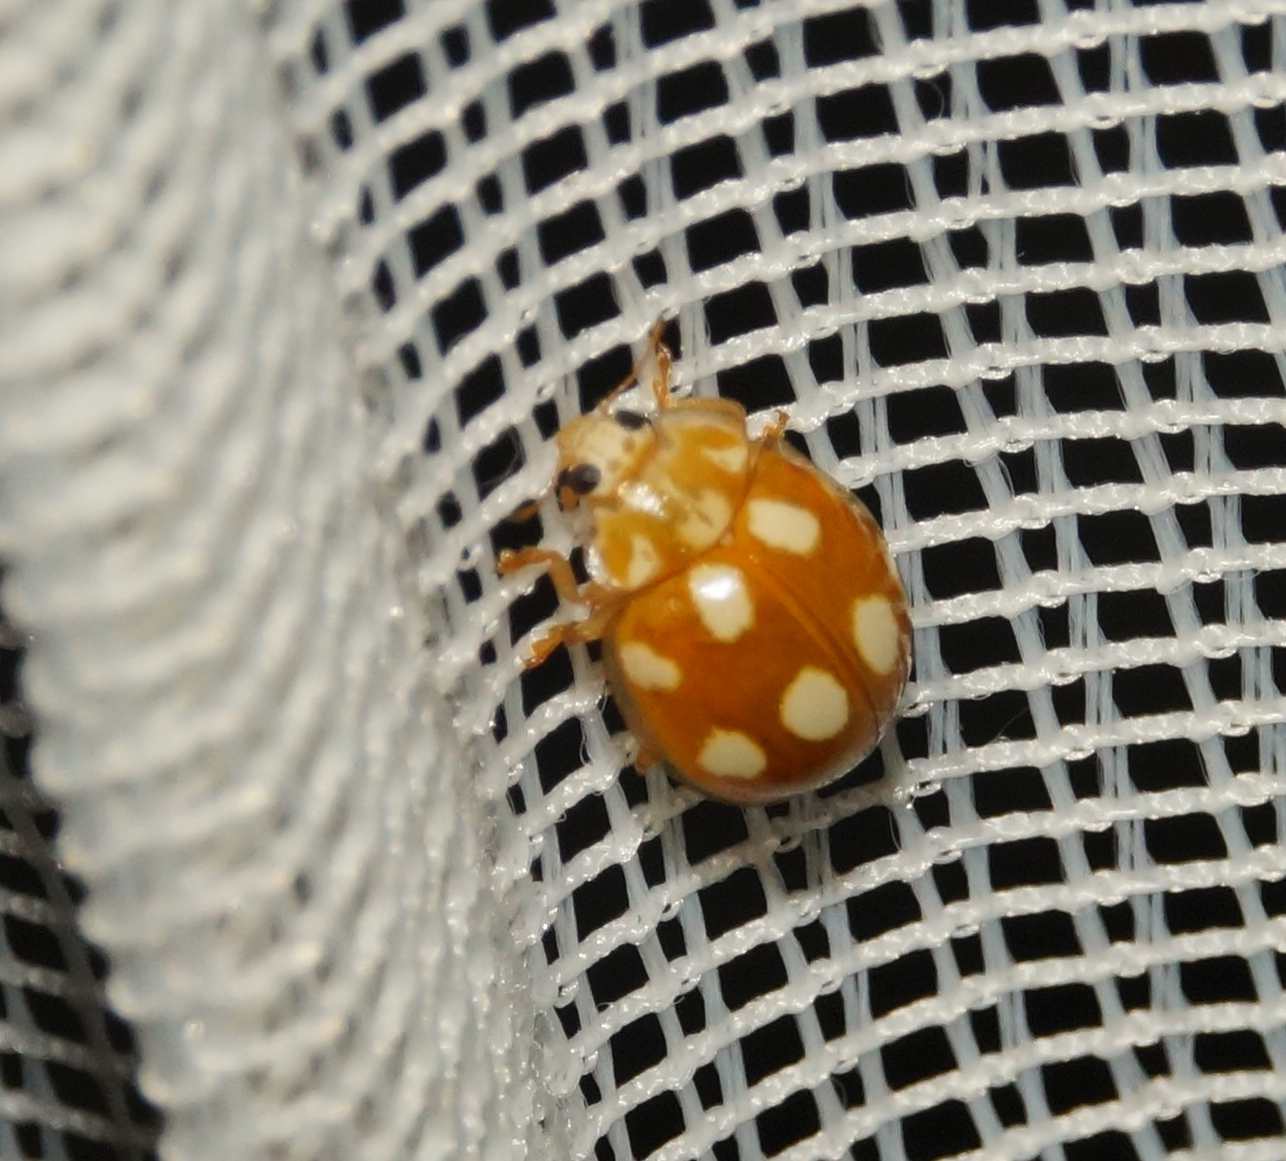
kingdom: Animalia
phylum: Arthropoda
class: Insecta
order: Coleoptera
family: Coccinellidae
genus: Calvia
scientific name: Calvia decemguttata
